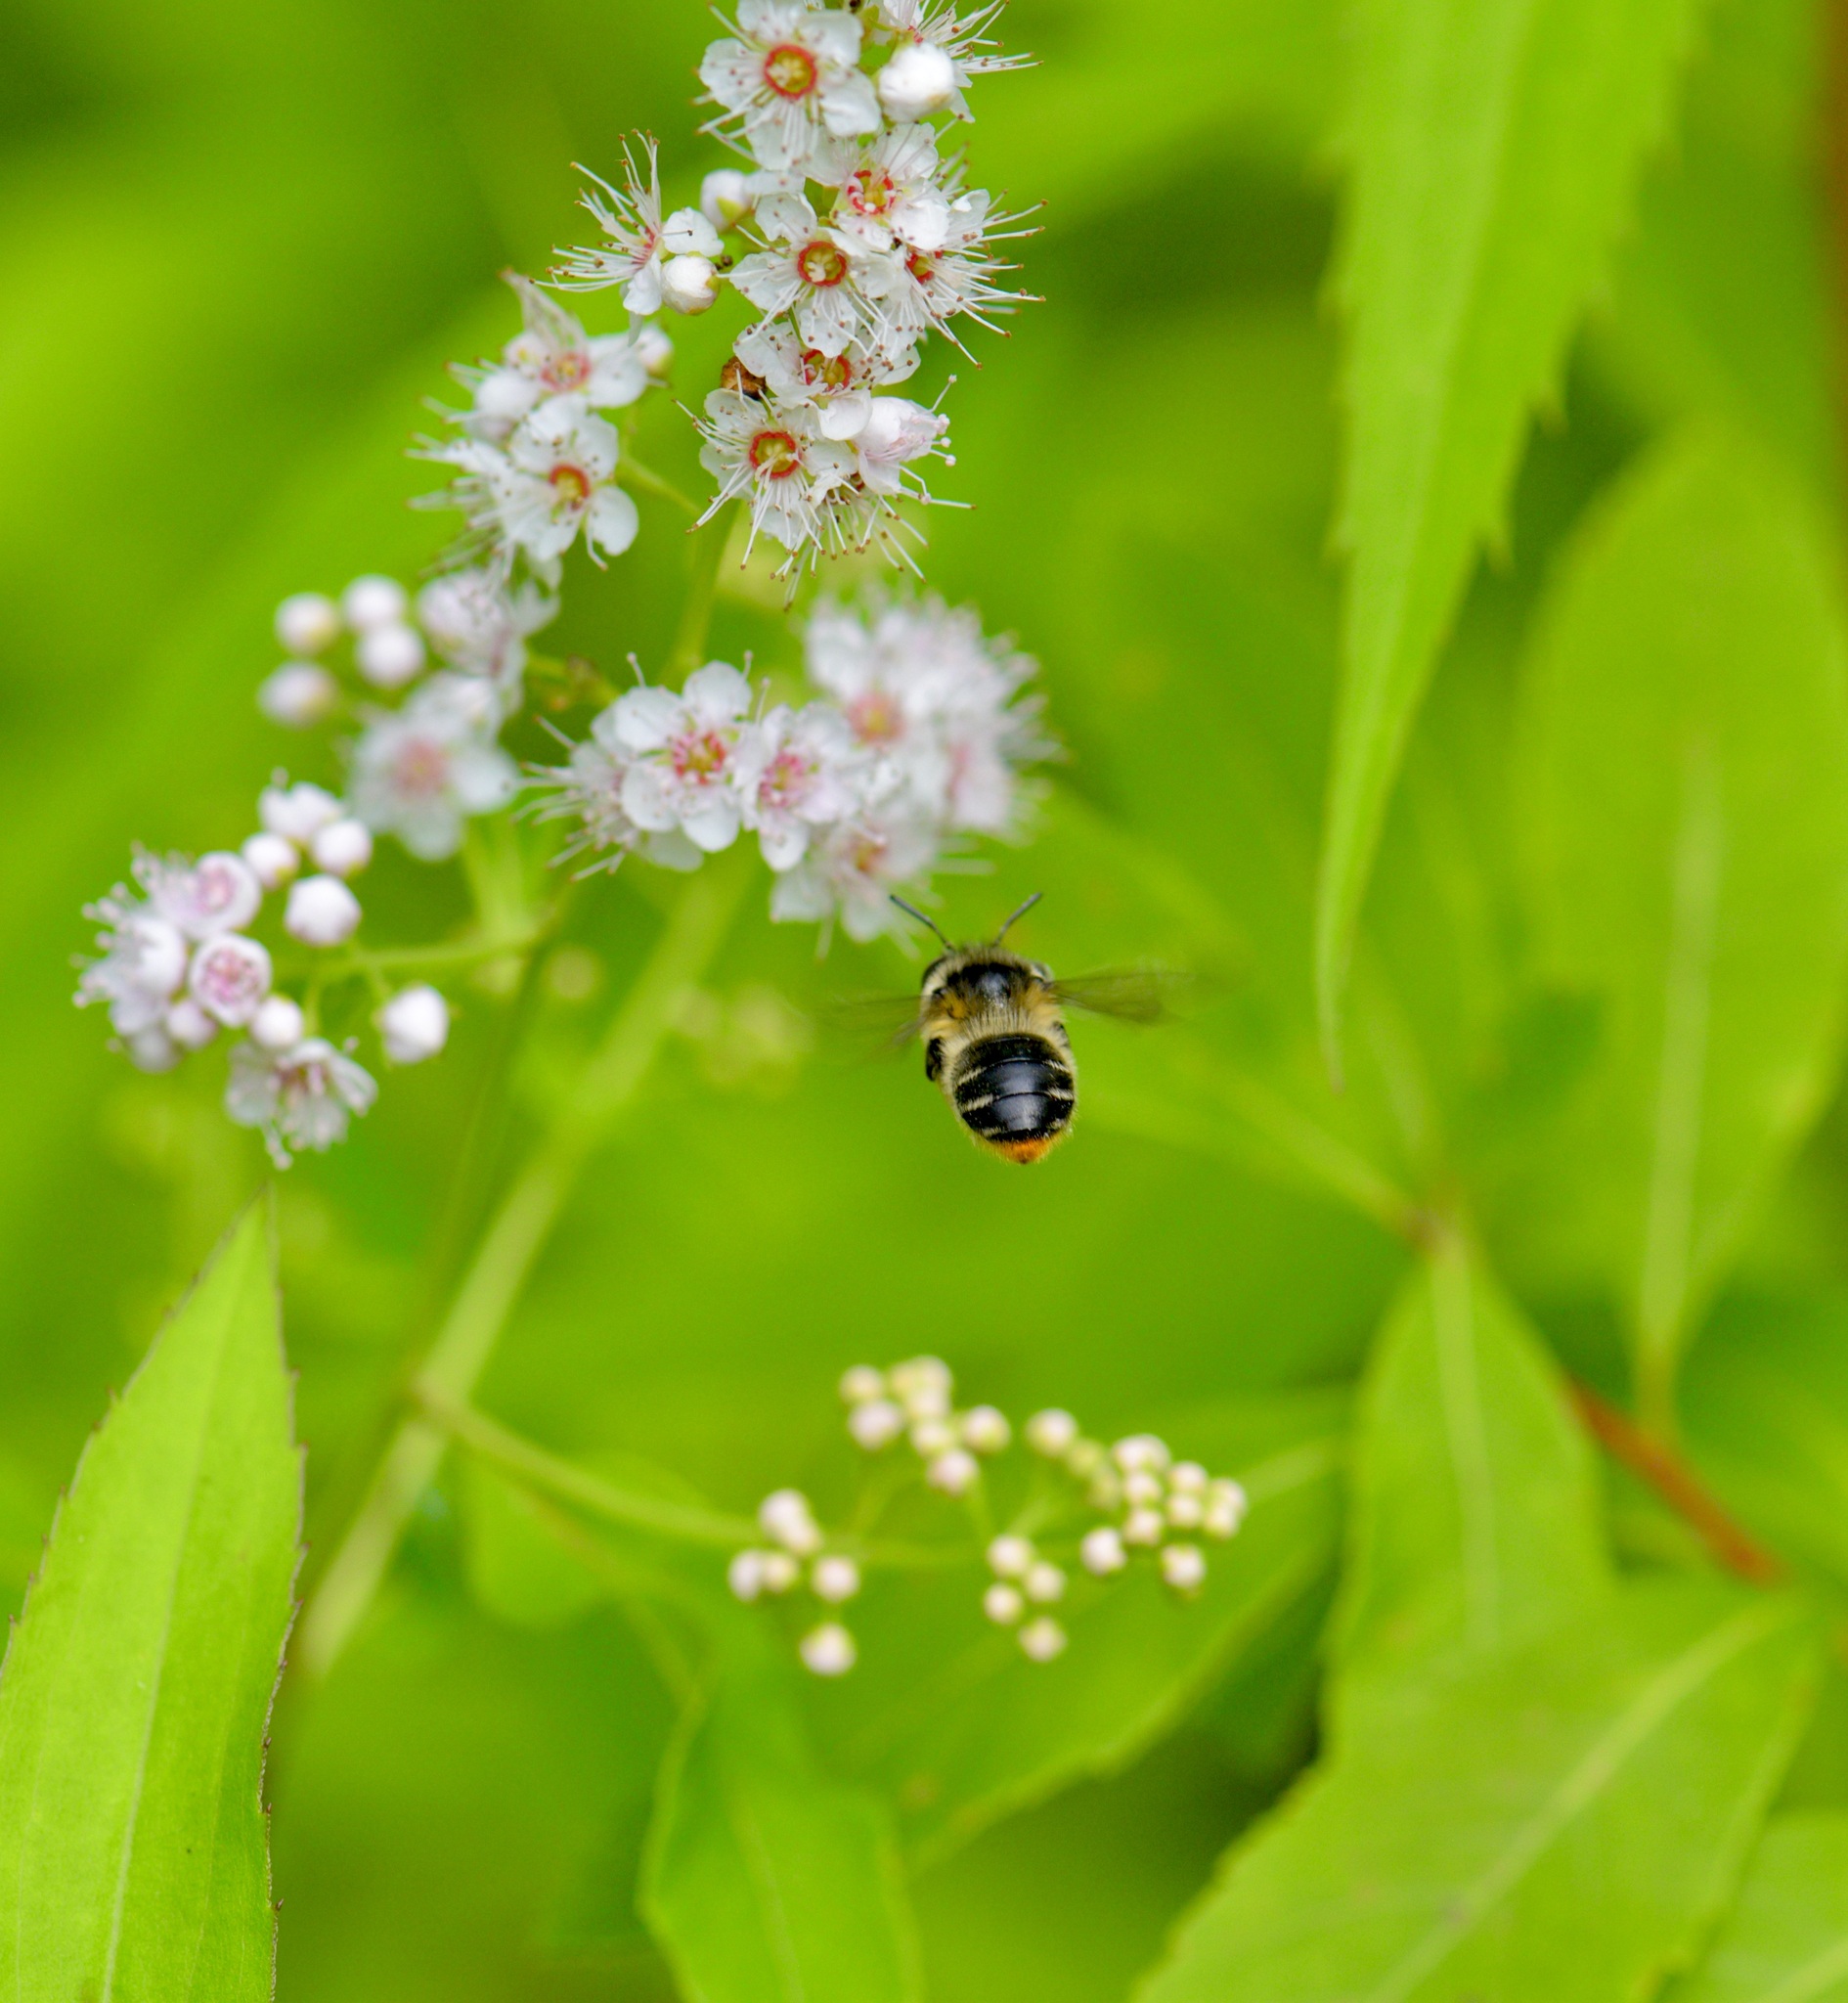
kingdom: Animalia
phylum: Arthropoda
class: Insecta
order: Hymenoptera
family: Apidae
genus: Anthophora
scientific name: Anthophora terminalis
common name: Orange-tipped wood-digger bee
